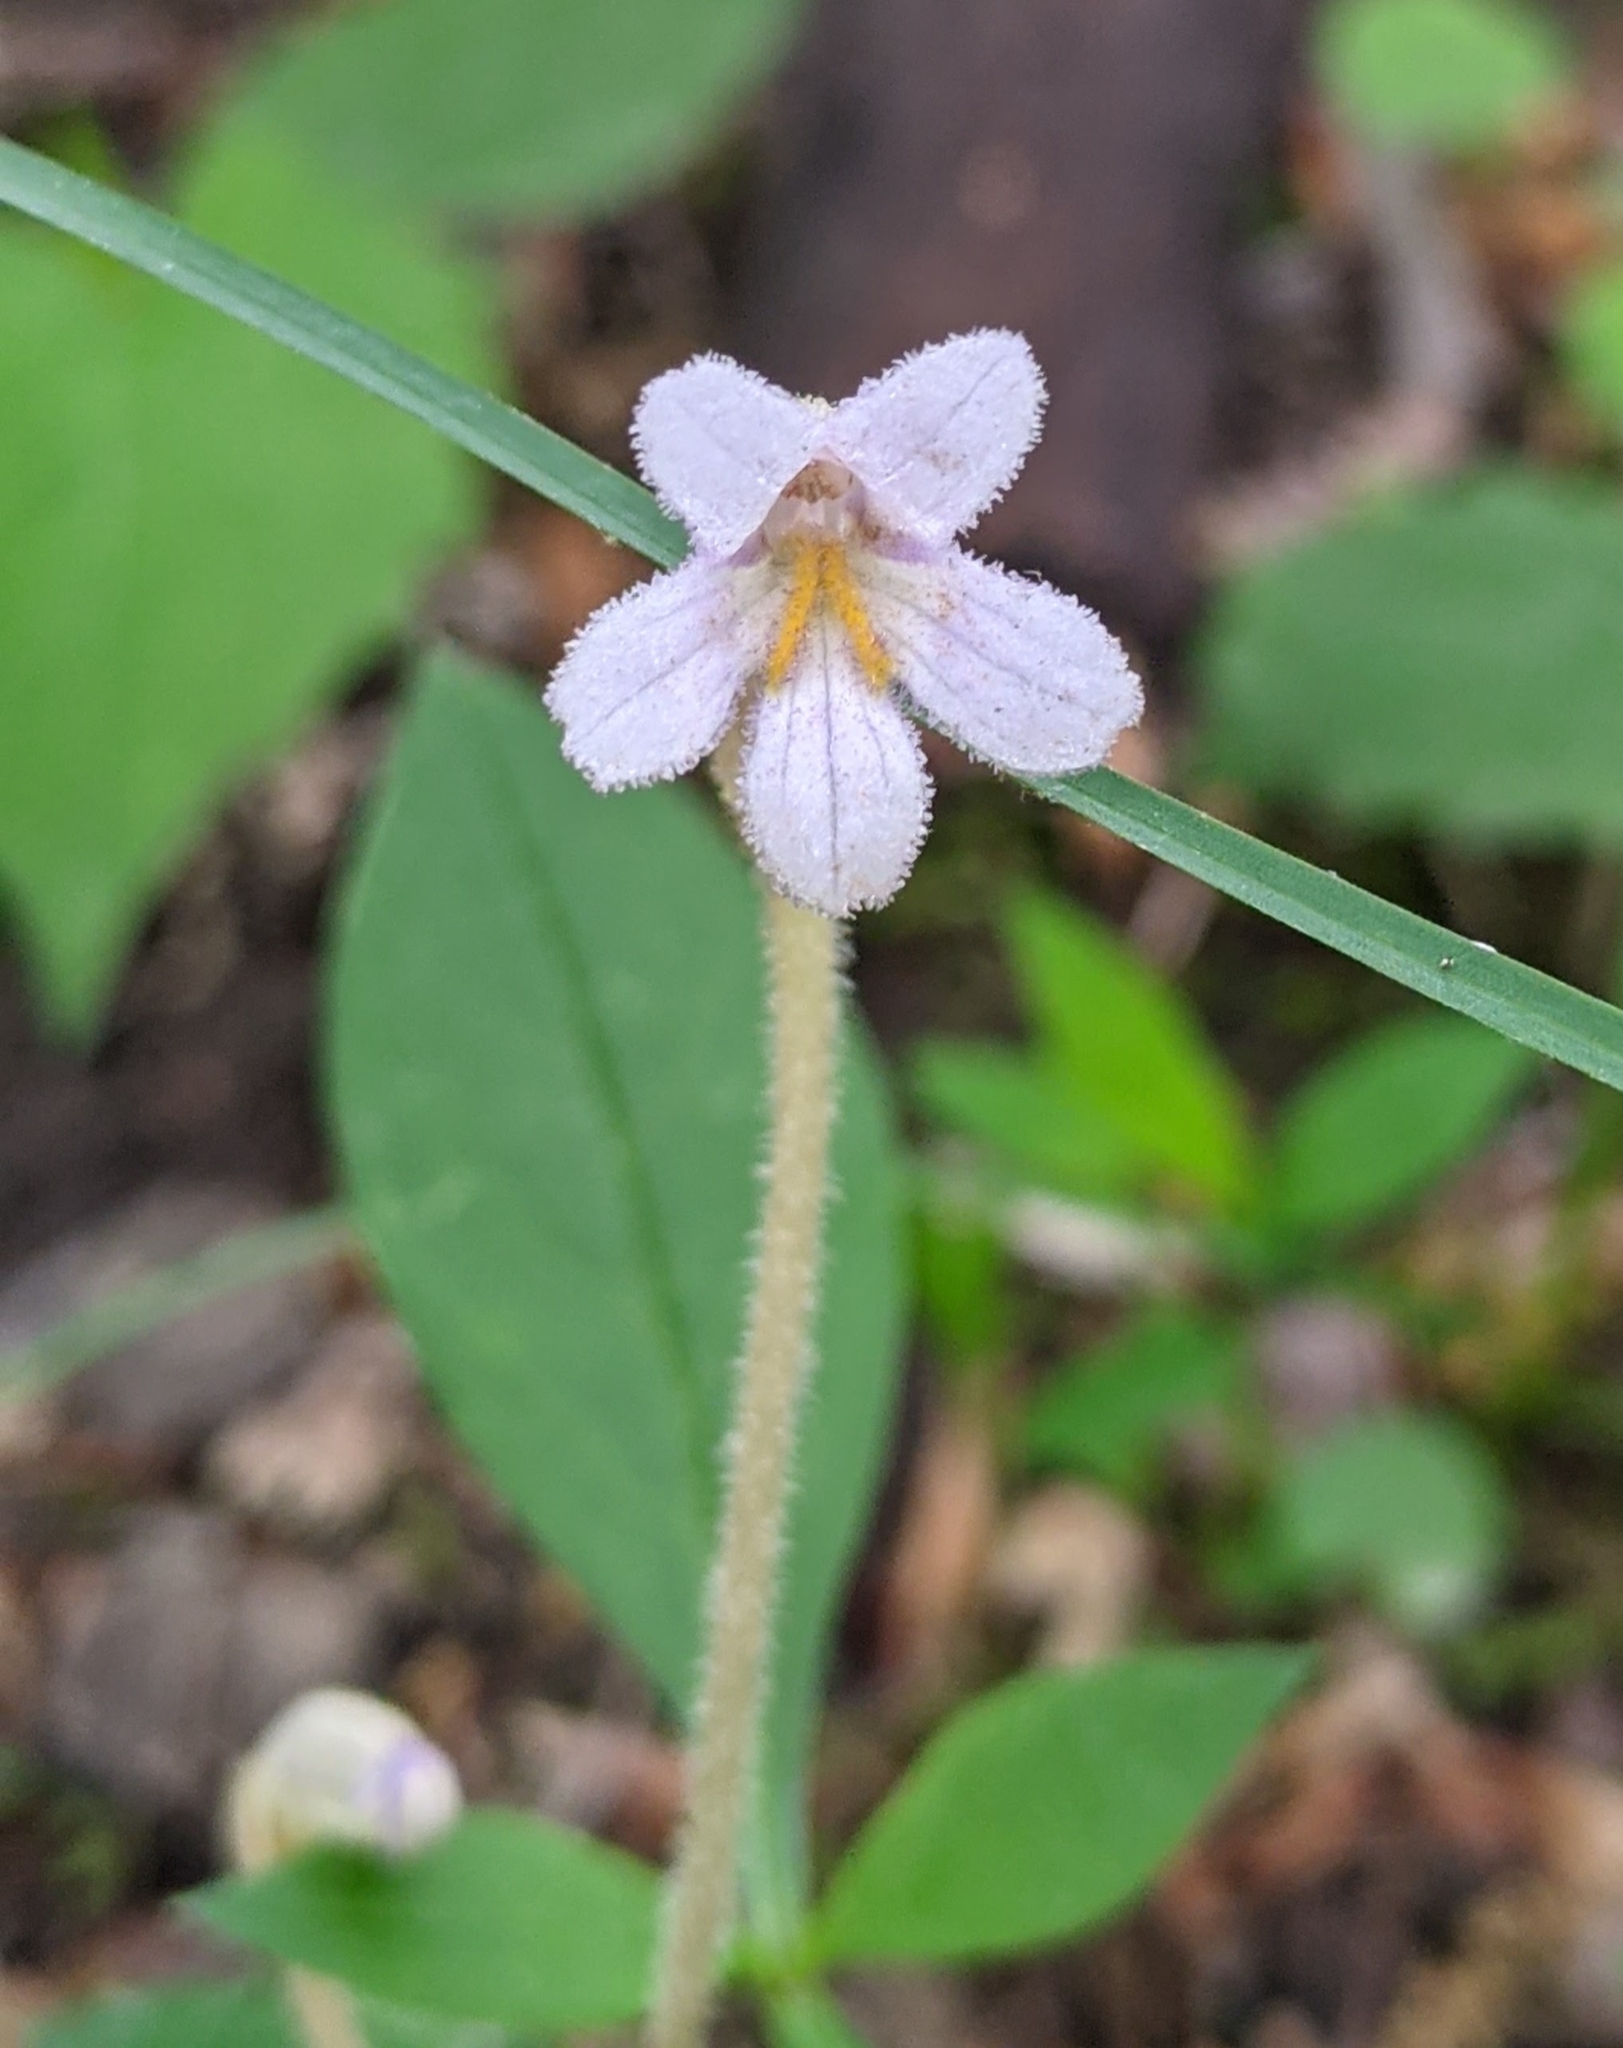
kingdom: Plantae
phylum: Tracheophyta
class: Magnoliopsida
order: Lamiales
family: Orobanchaceae
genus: Aphyllon
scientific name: Aphyllon uniflorum
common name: One-flowered broomrape
